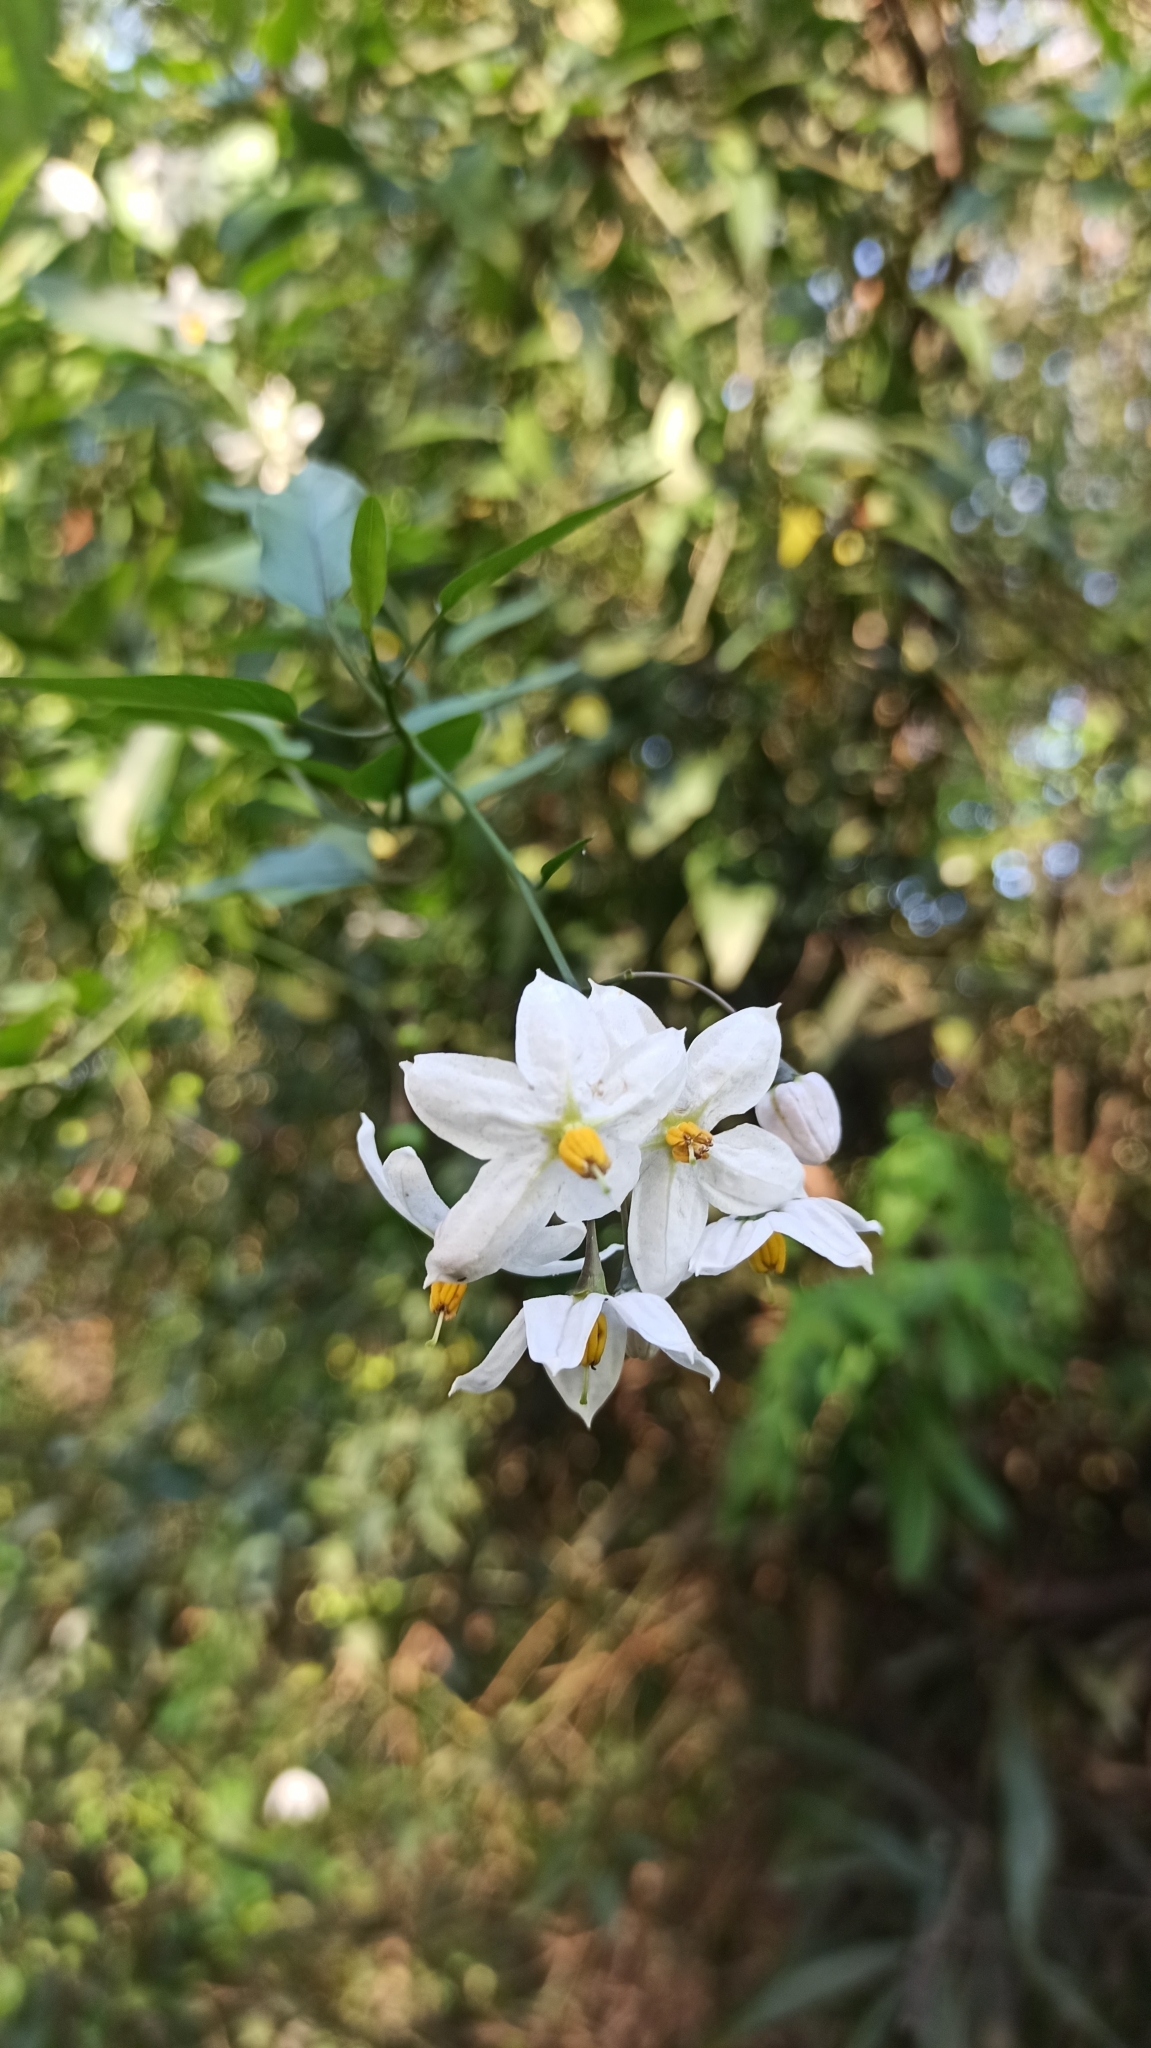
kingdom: Plantae
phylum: Tracheophyta
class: Magnoliopsida
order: Solanales
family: Solanaceae
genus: Solanum
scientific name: Solanum laxum
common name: Nightshade
